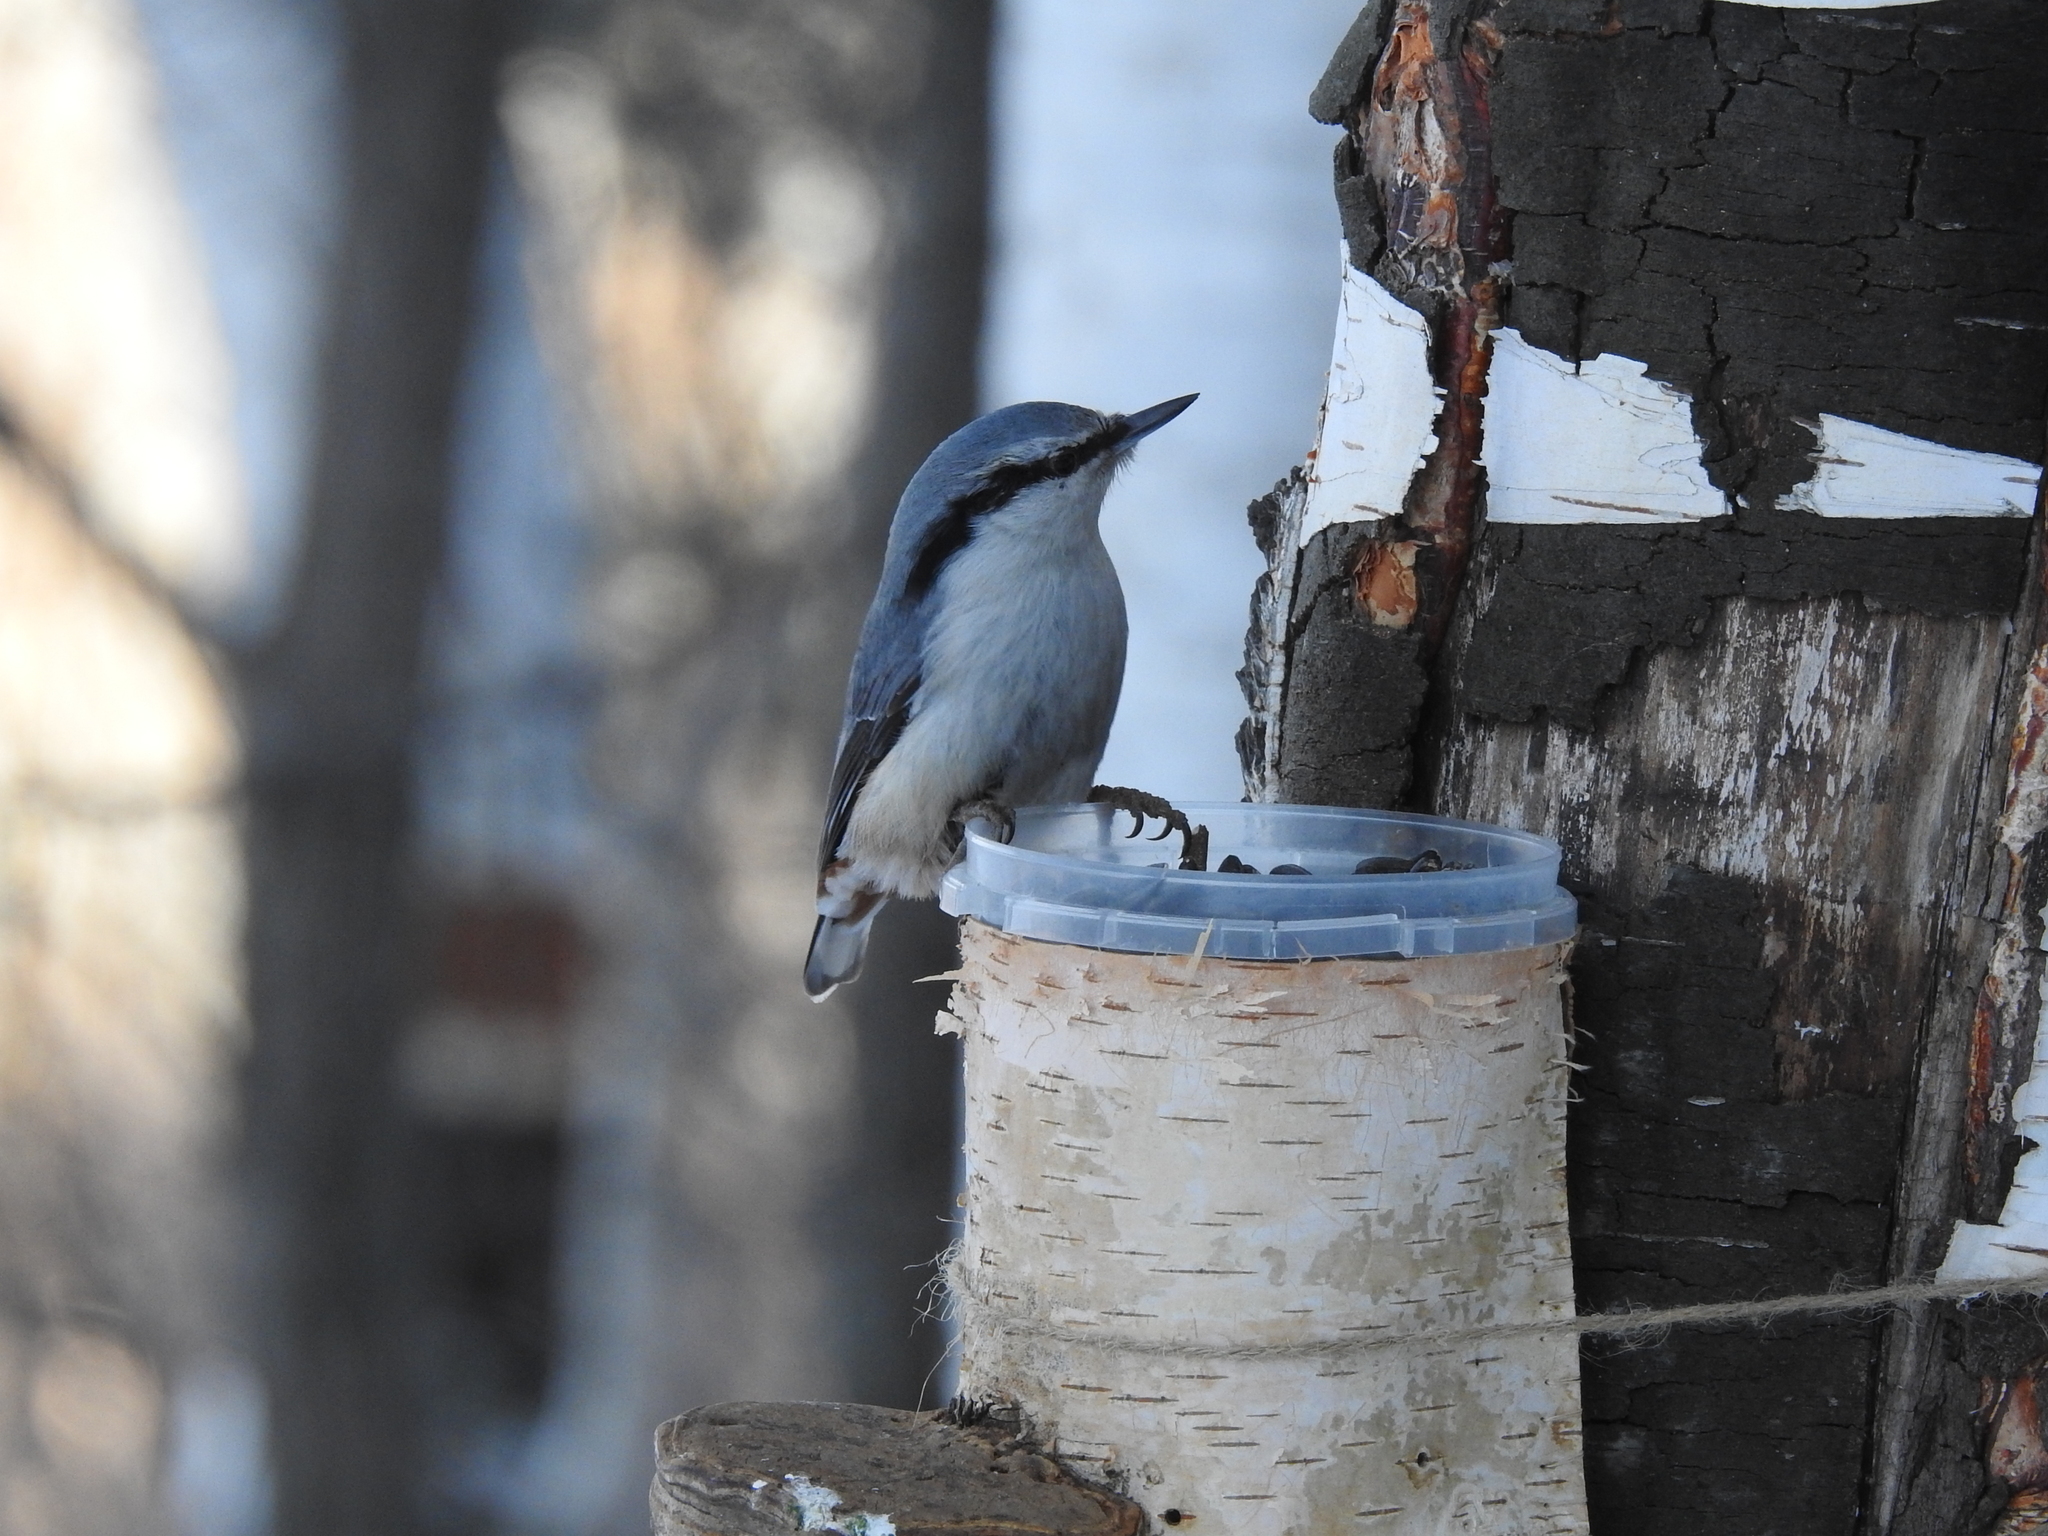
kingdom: Animalia
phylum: Chordata
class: Aves
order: Passeriformes
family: Sittidae
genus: Sitta
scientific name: Sitta europaea
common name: Eurasian nuthatch
